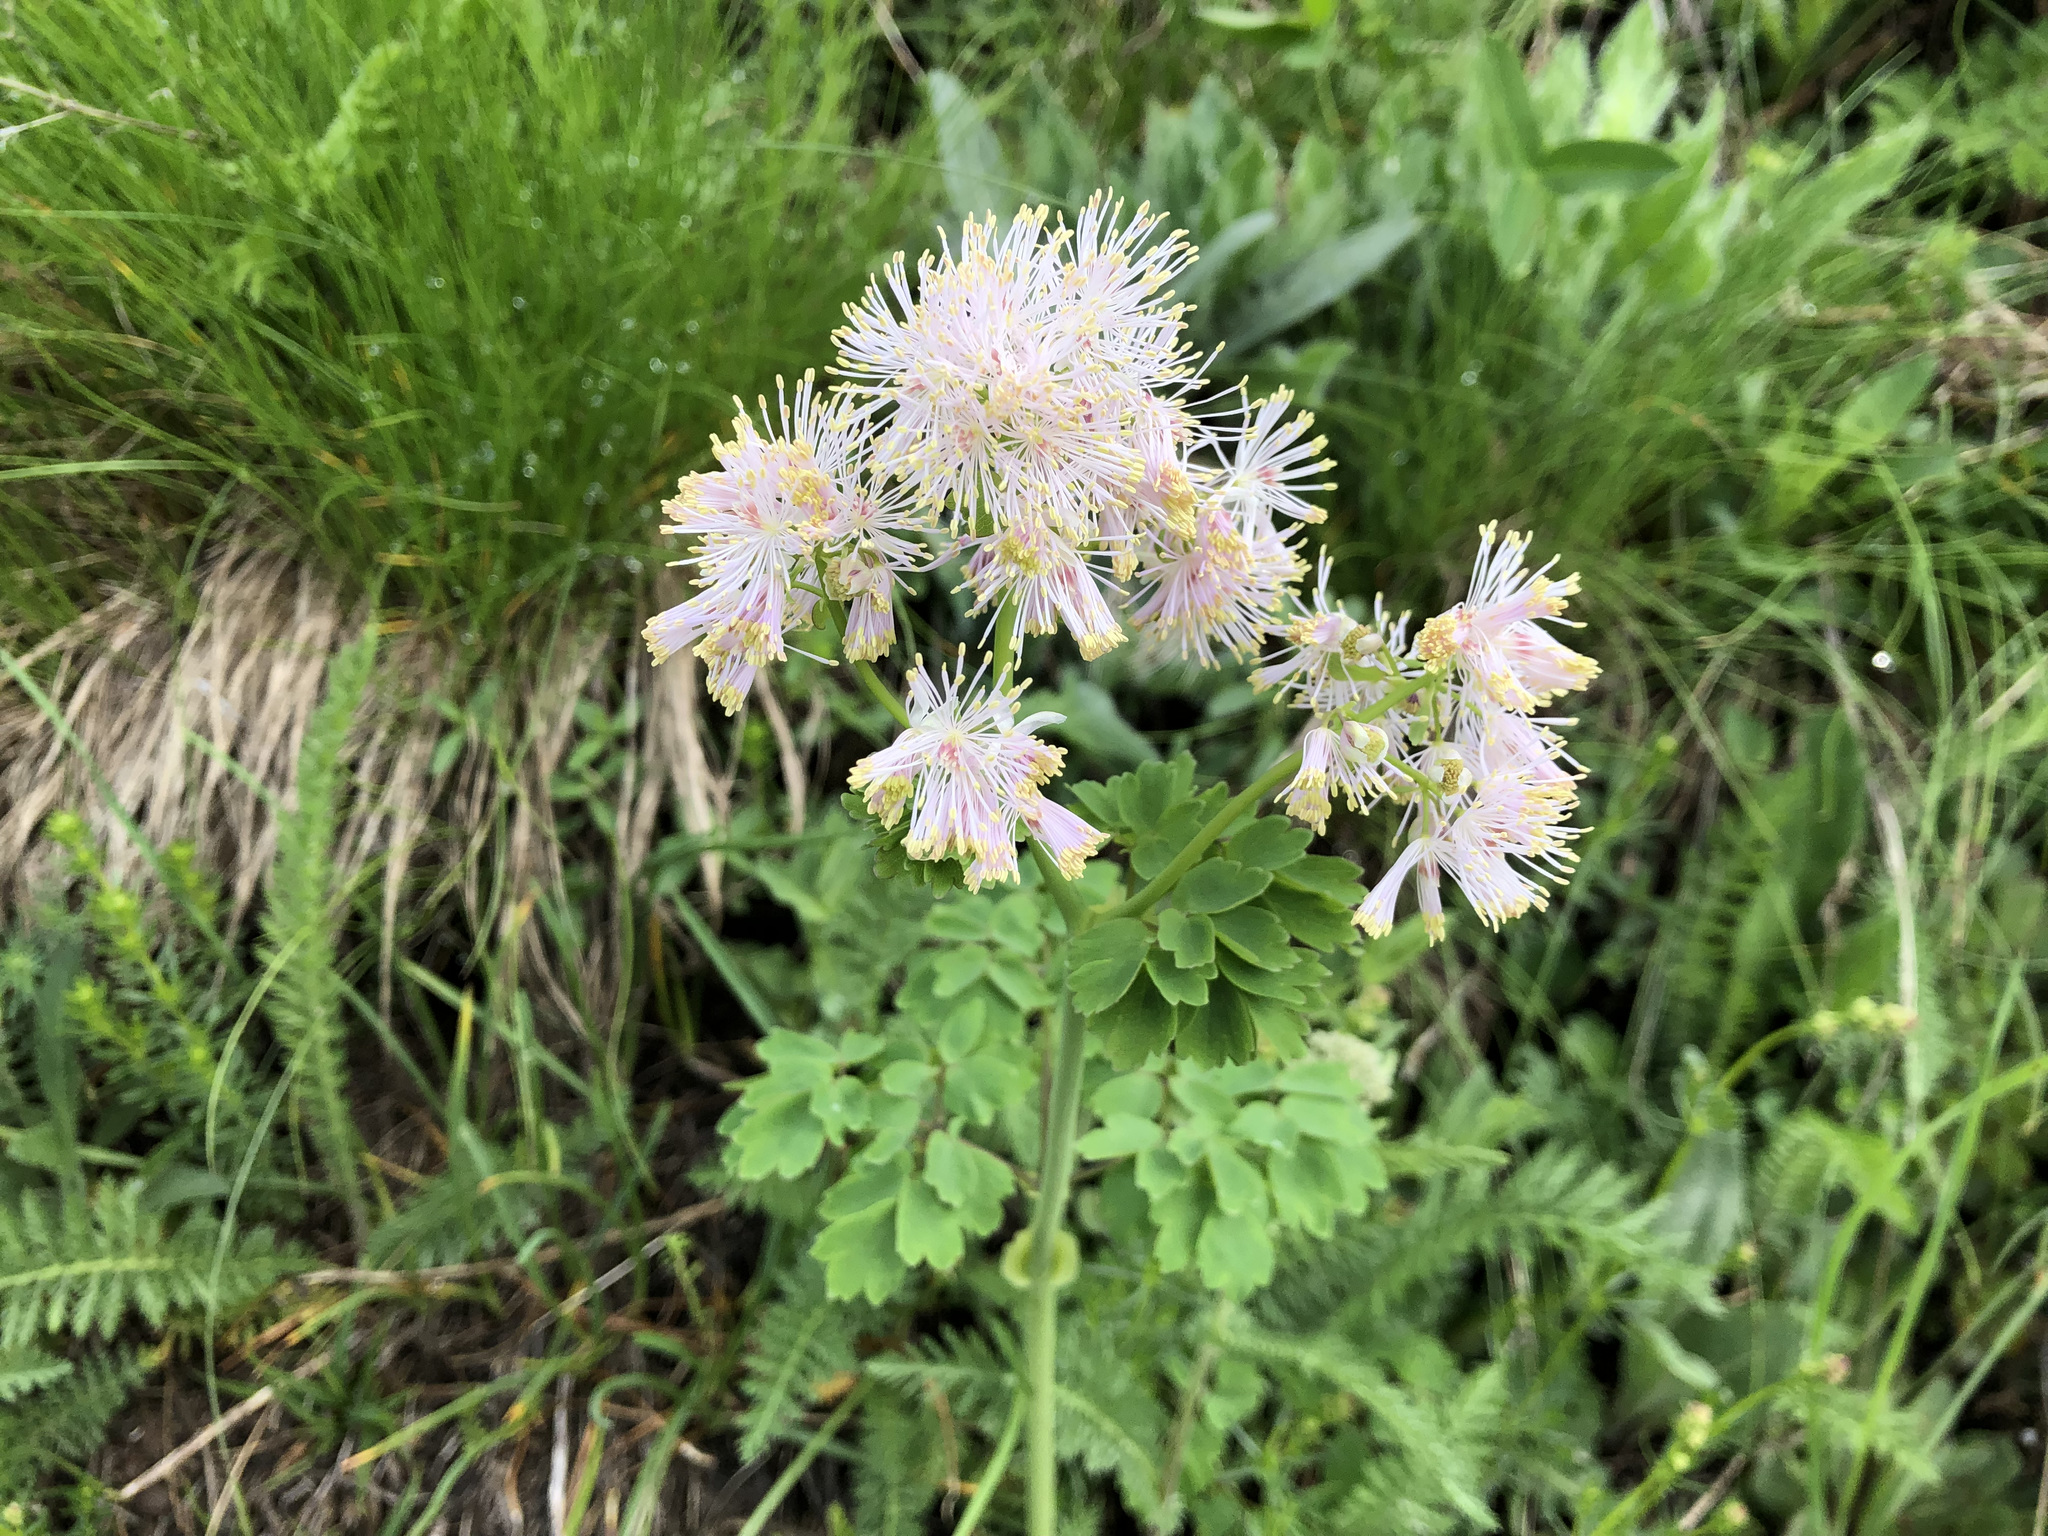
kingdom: Plantae
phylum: Tracheophyta
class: Magnoliopsida
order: Ranunculales
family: Ranunculaceae
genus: Thalictrum
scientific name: Thalictrum aquilegiifolium
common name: French meadow-rue
